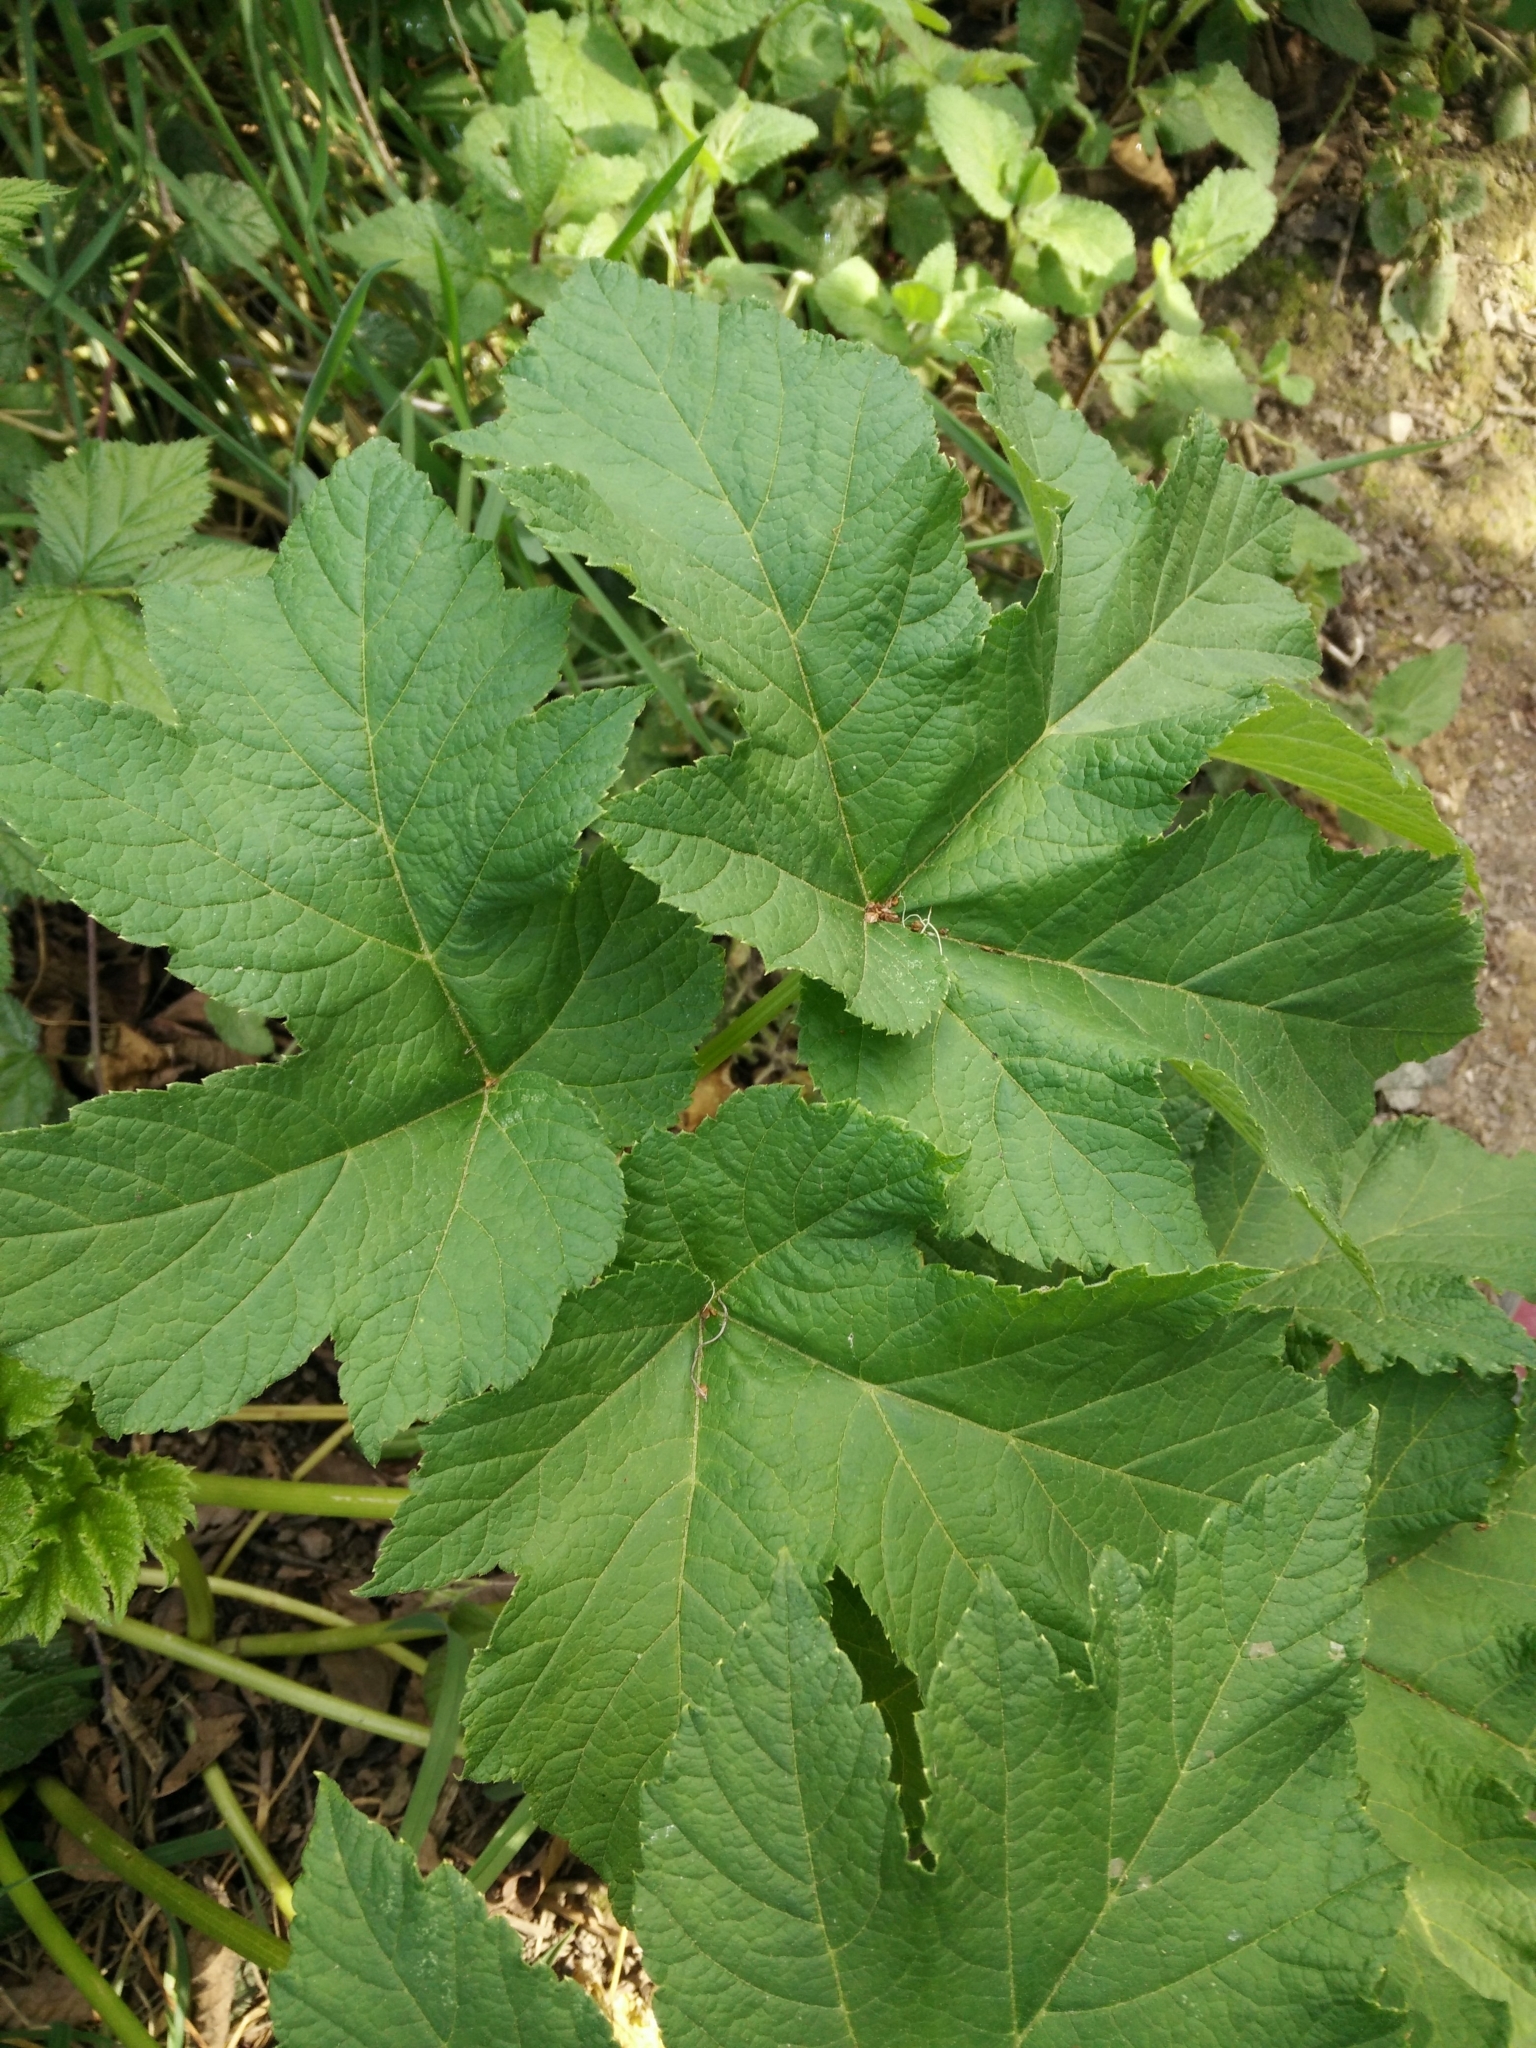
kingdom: Plantae
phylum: Tracheophyta
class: Magnoliopsida
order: Apiales
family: Apiaceae
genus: Heracleum
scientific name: Heracleum maximum
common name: American cow parsnip
